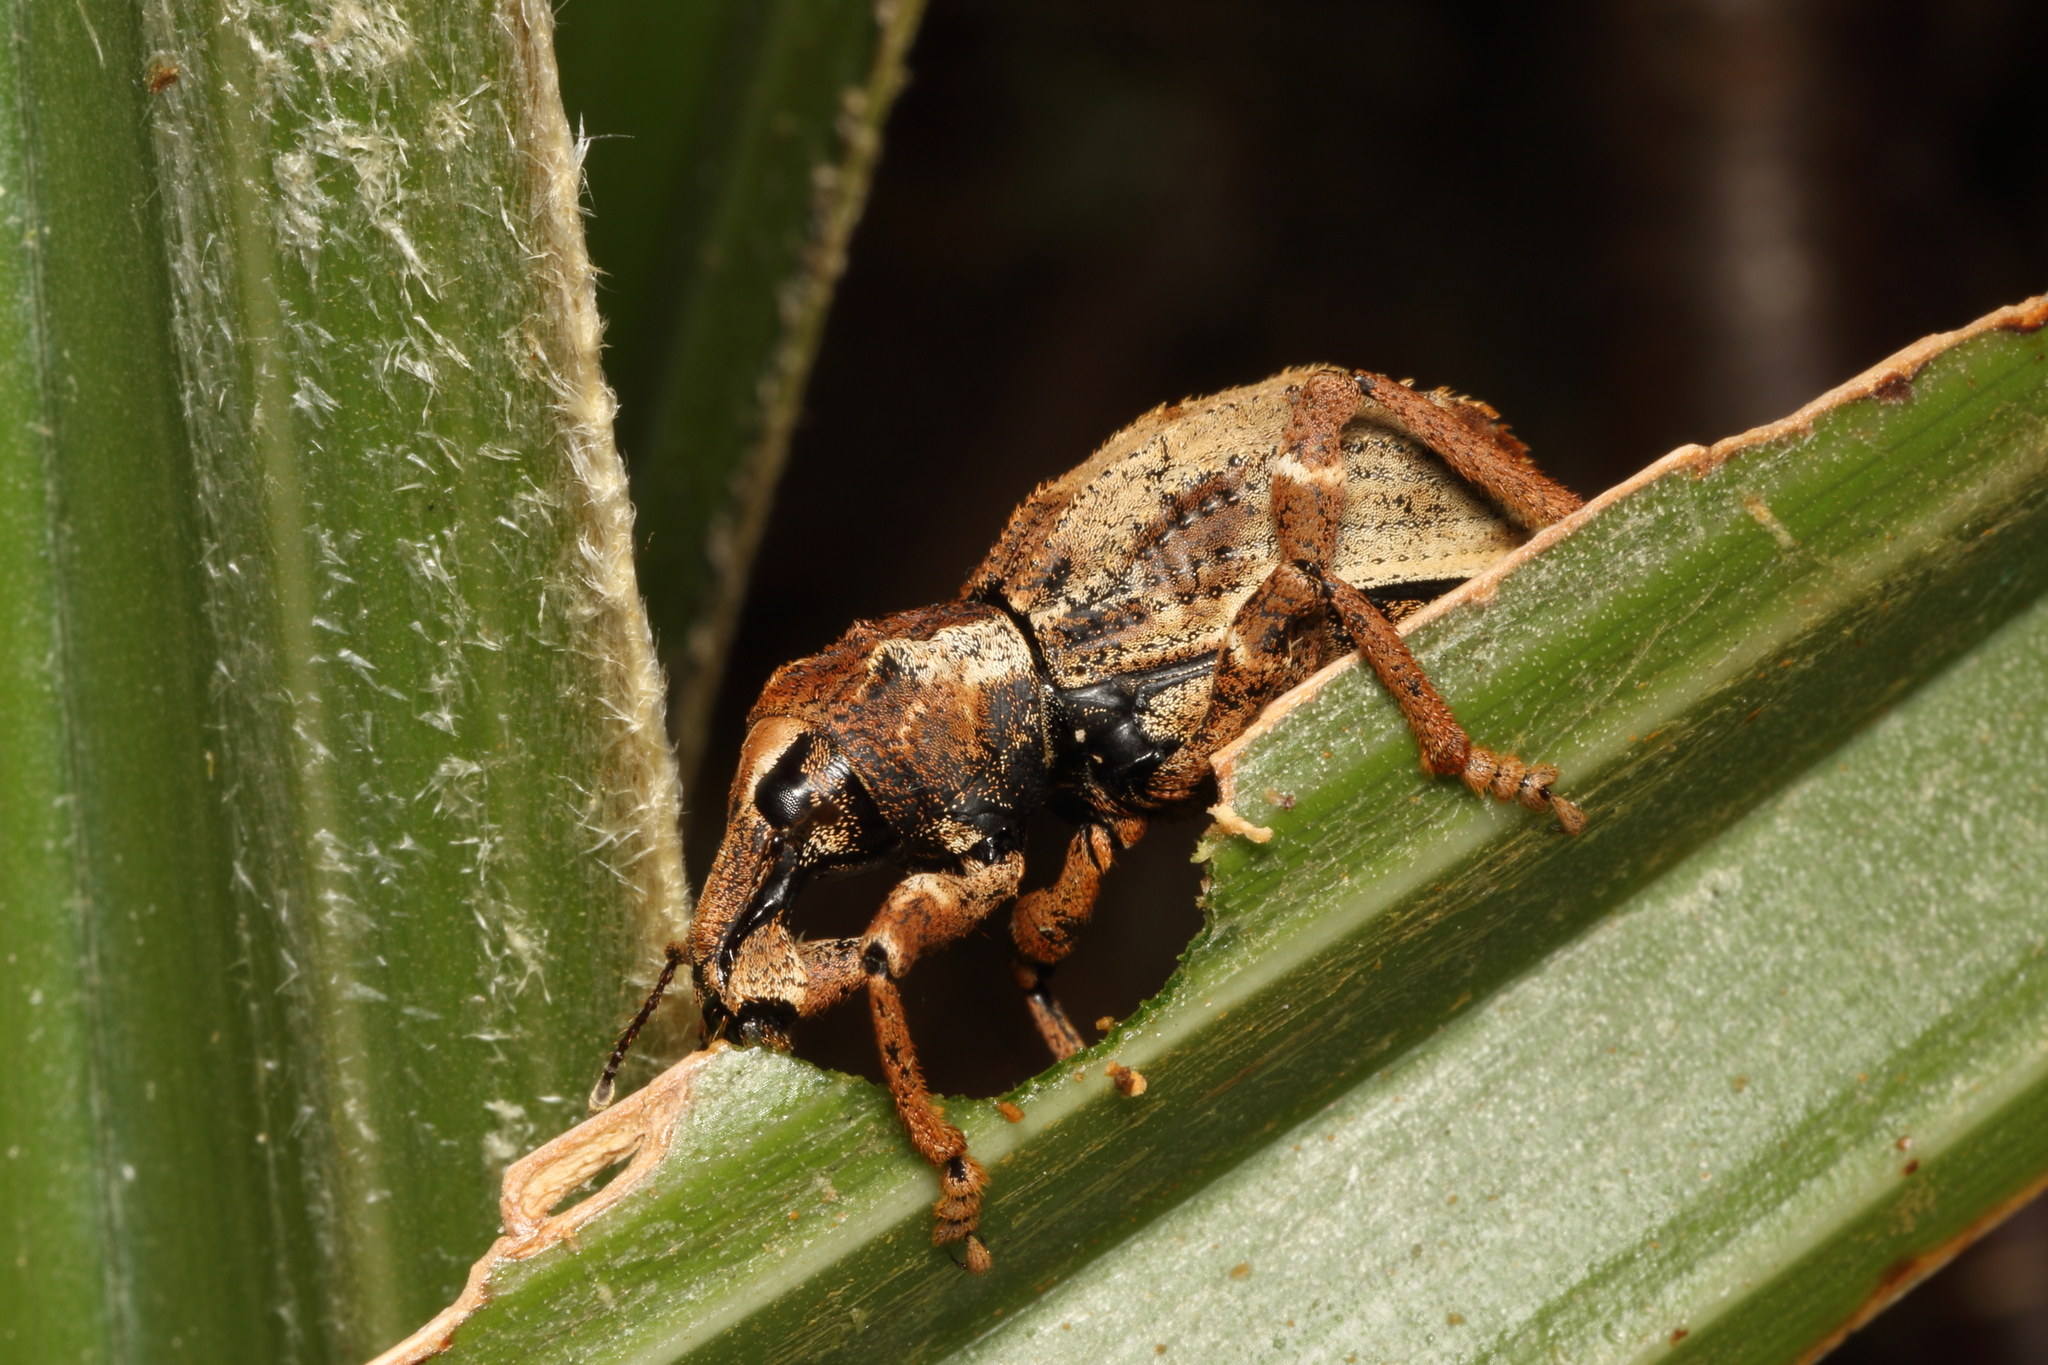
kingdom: Animalia
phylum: Arthropoda
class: Insecta
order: Coleoptera
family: Curculionidae
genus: Anagotus
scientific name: Anagotus
